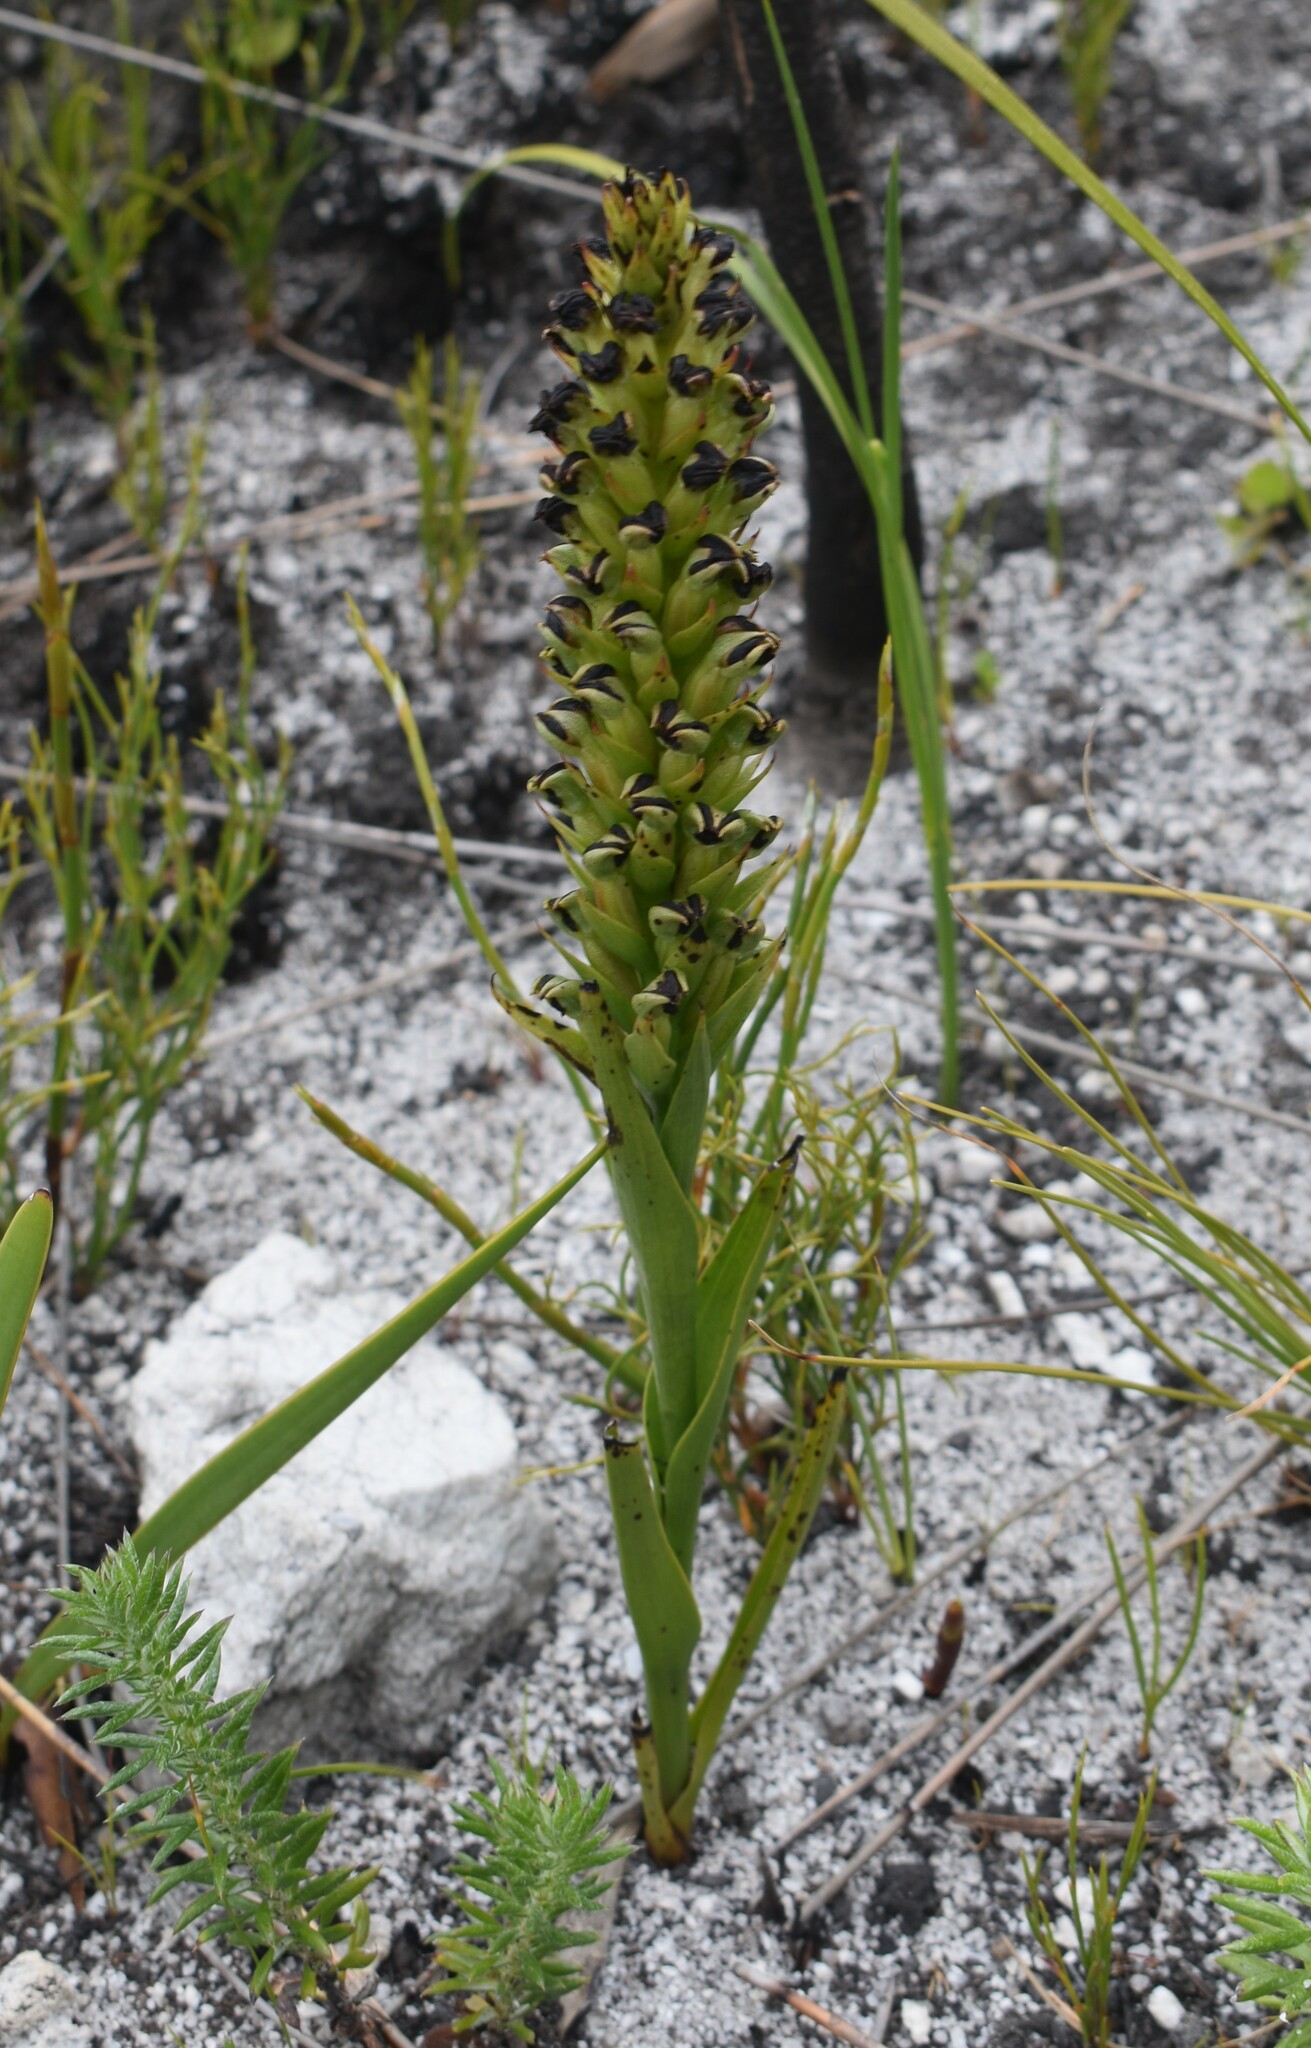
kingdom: Plantae
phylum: Tracheophyta
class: Liliopsida
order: Asparagales
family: Orchidaceae
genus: Evotella
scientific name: Evotella carnosa
